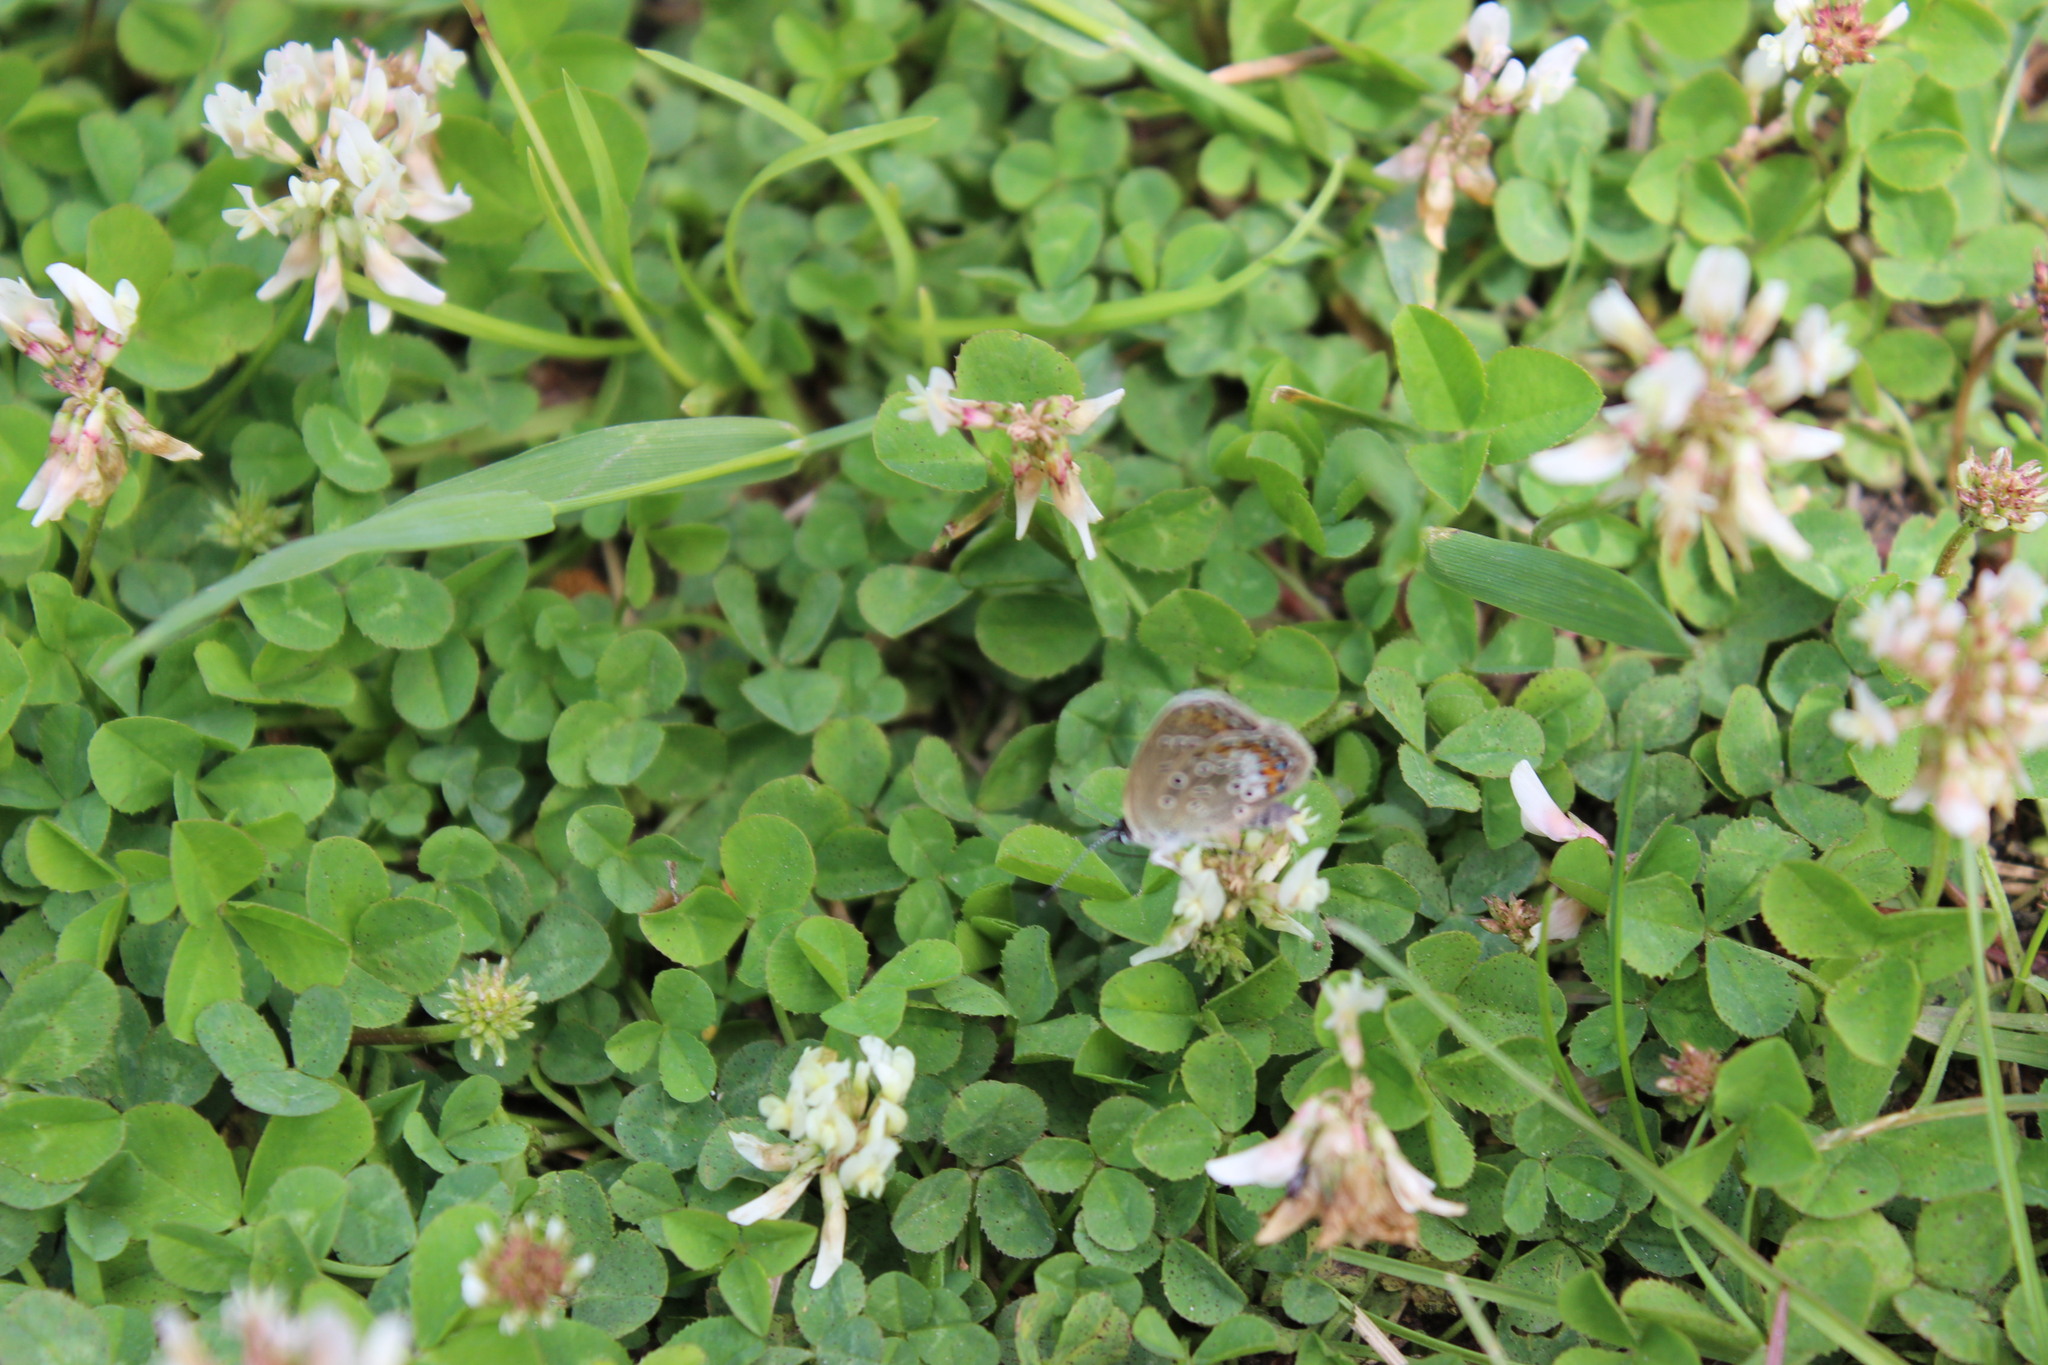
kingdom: Plantae
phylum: Tracheophyta
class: Magnoliopsida
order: Fabales
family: Fabaceae
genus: Trifolium
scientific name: Trifolium repens
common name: White clover
